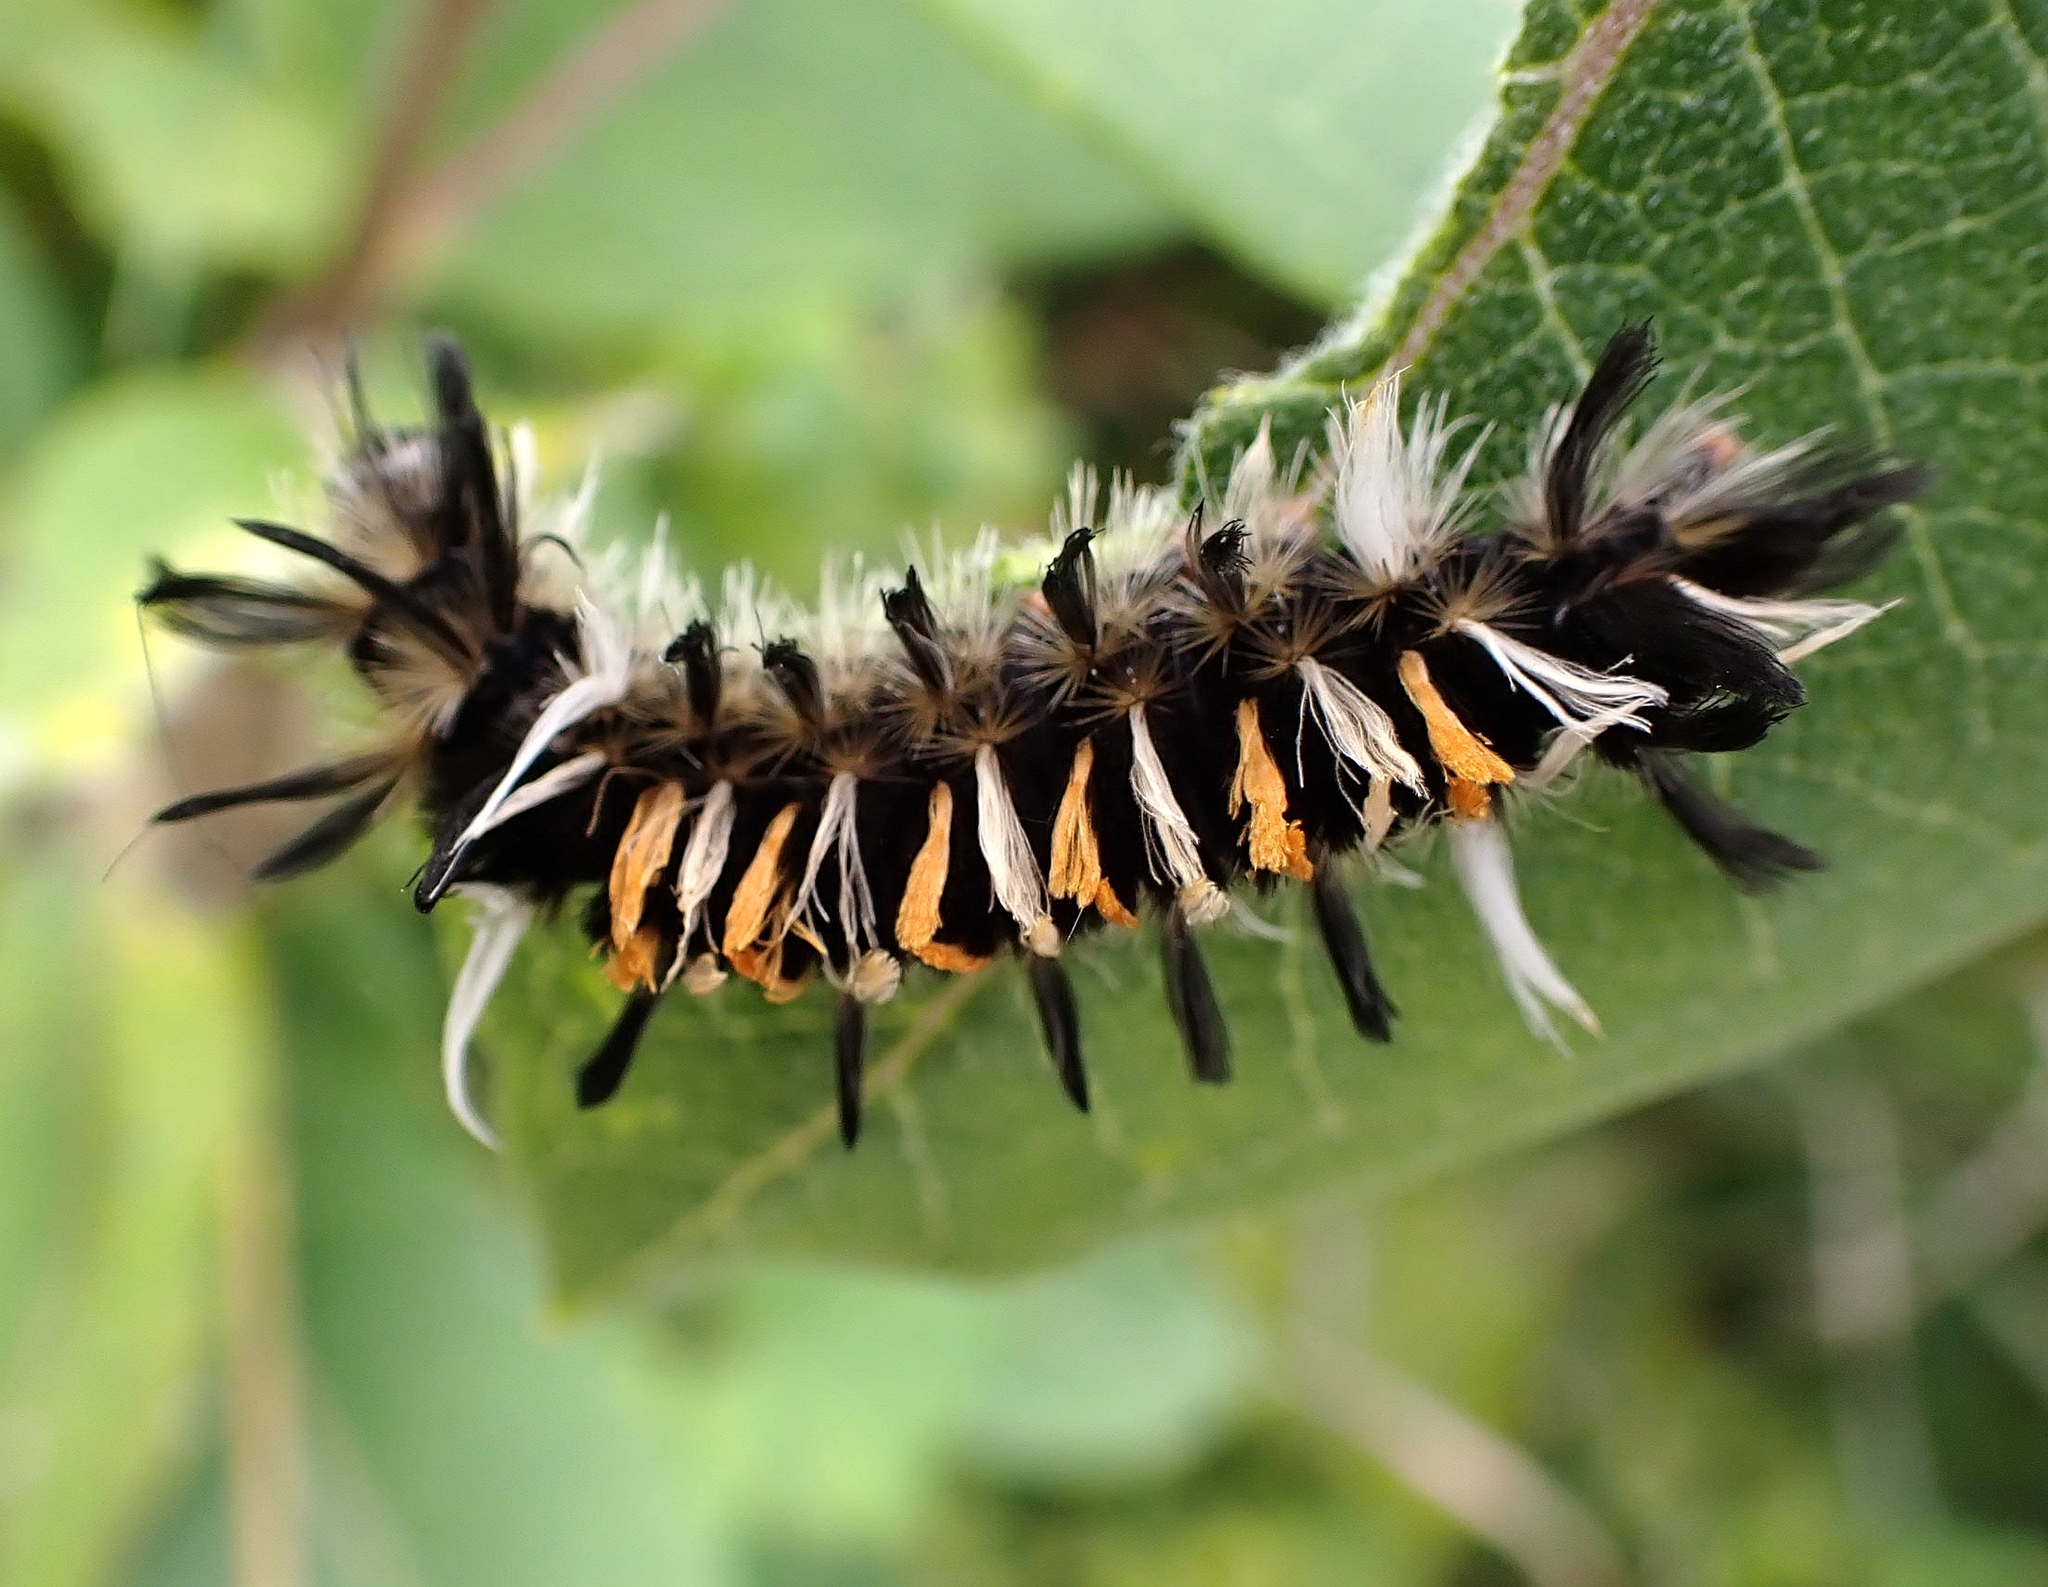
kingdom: Animalia
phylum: Arthropoda
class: Insecta
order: Lepidoptera
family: Erebidae
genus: Euchaetes
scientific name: Euchaetes egle
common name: Milkweed tussock moth
